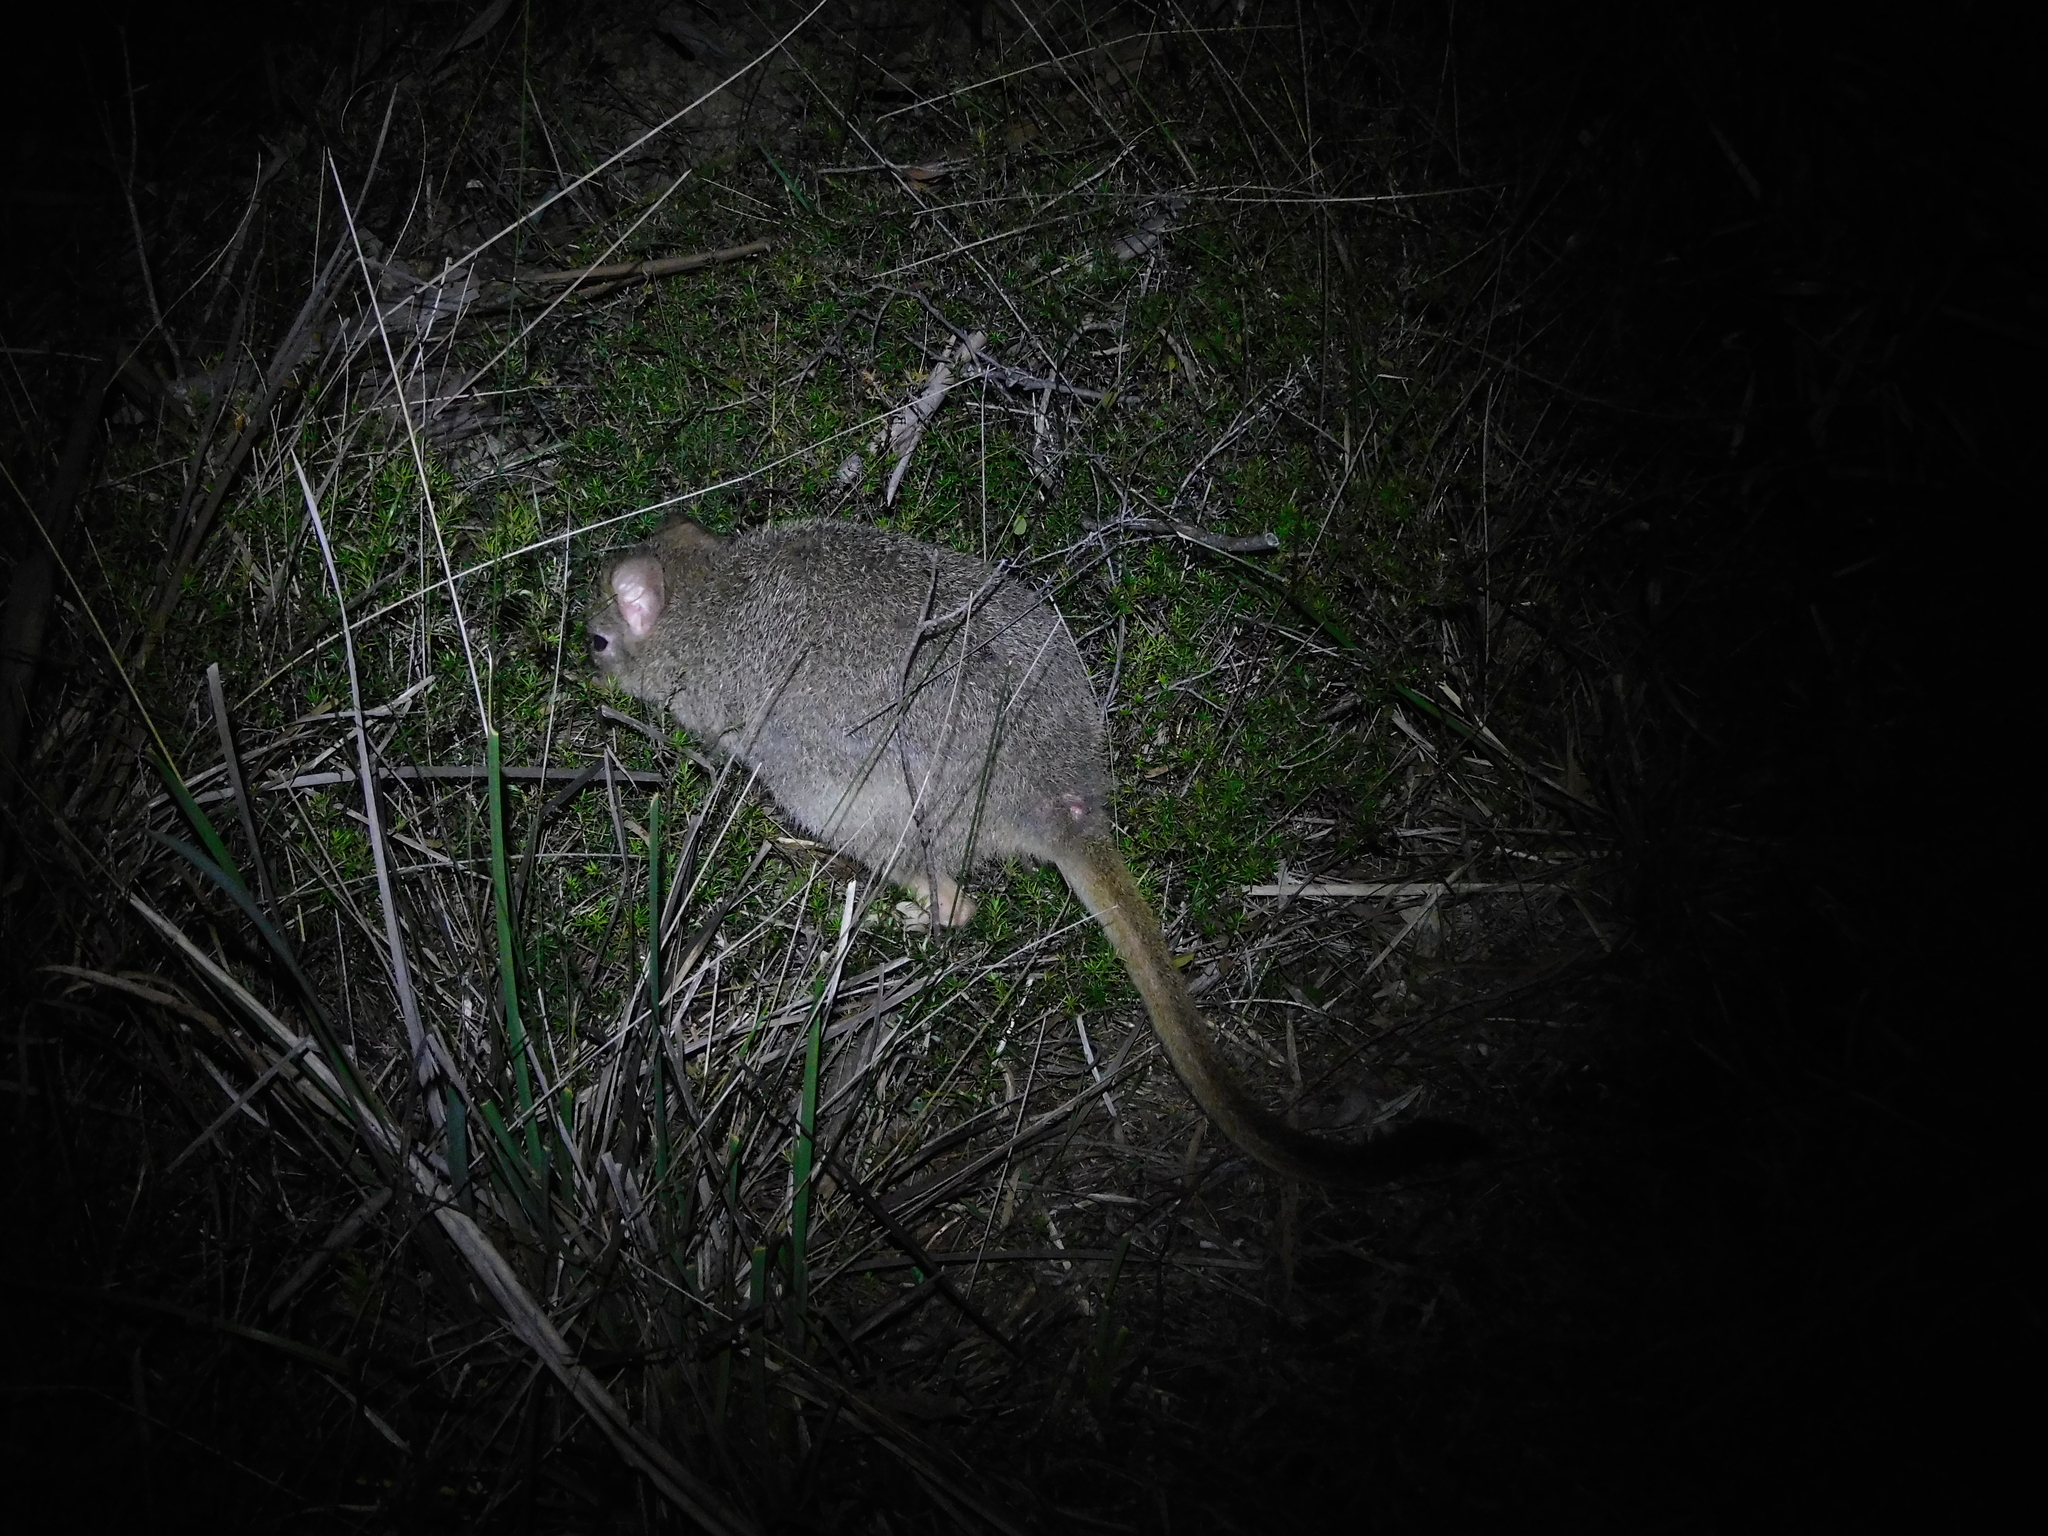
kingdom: Animalia
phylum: Chordata
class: Mammalia
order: Diprotodontia
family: Potoroidae
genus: Bettongia
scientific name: Bettongia gaimardi
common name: Eastern bettong
